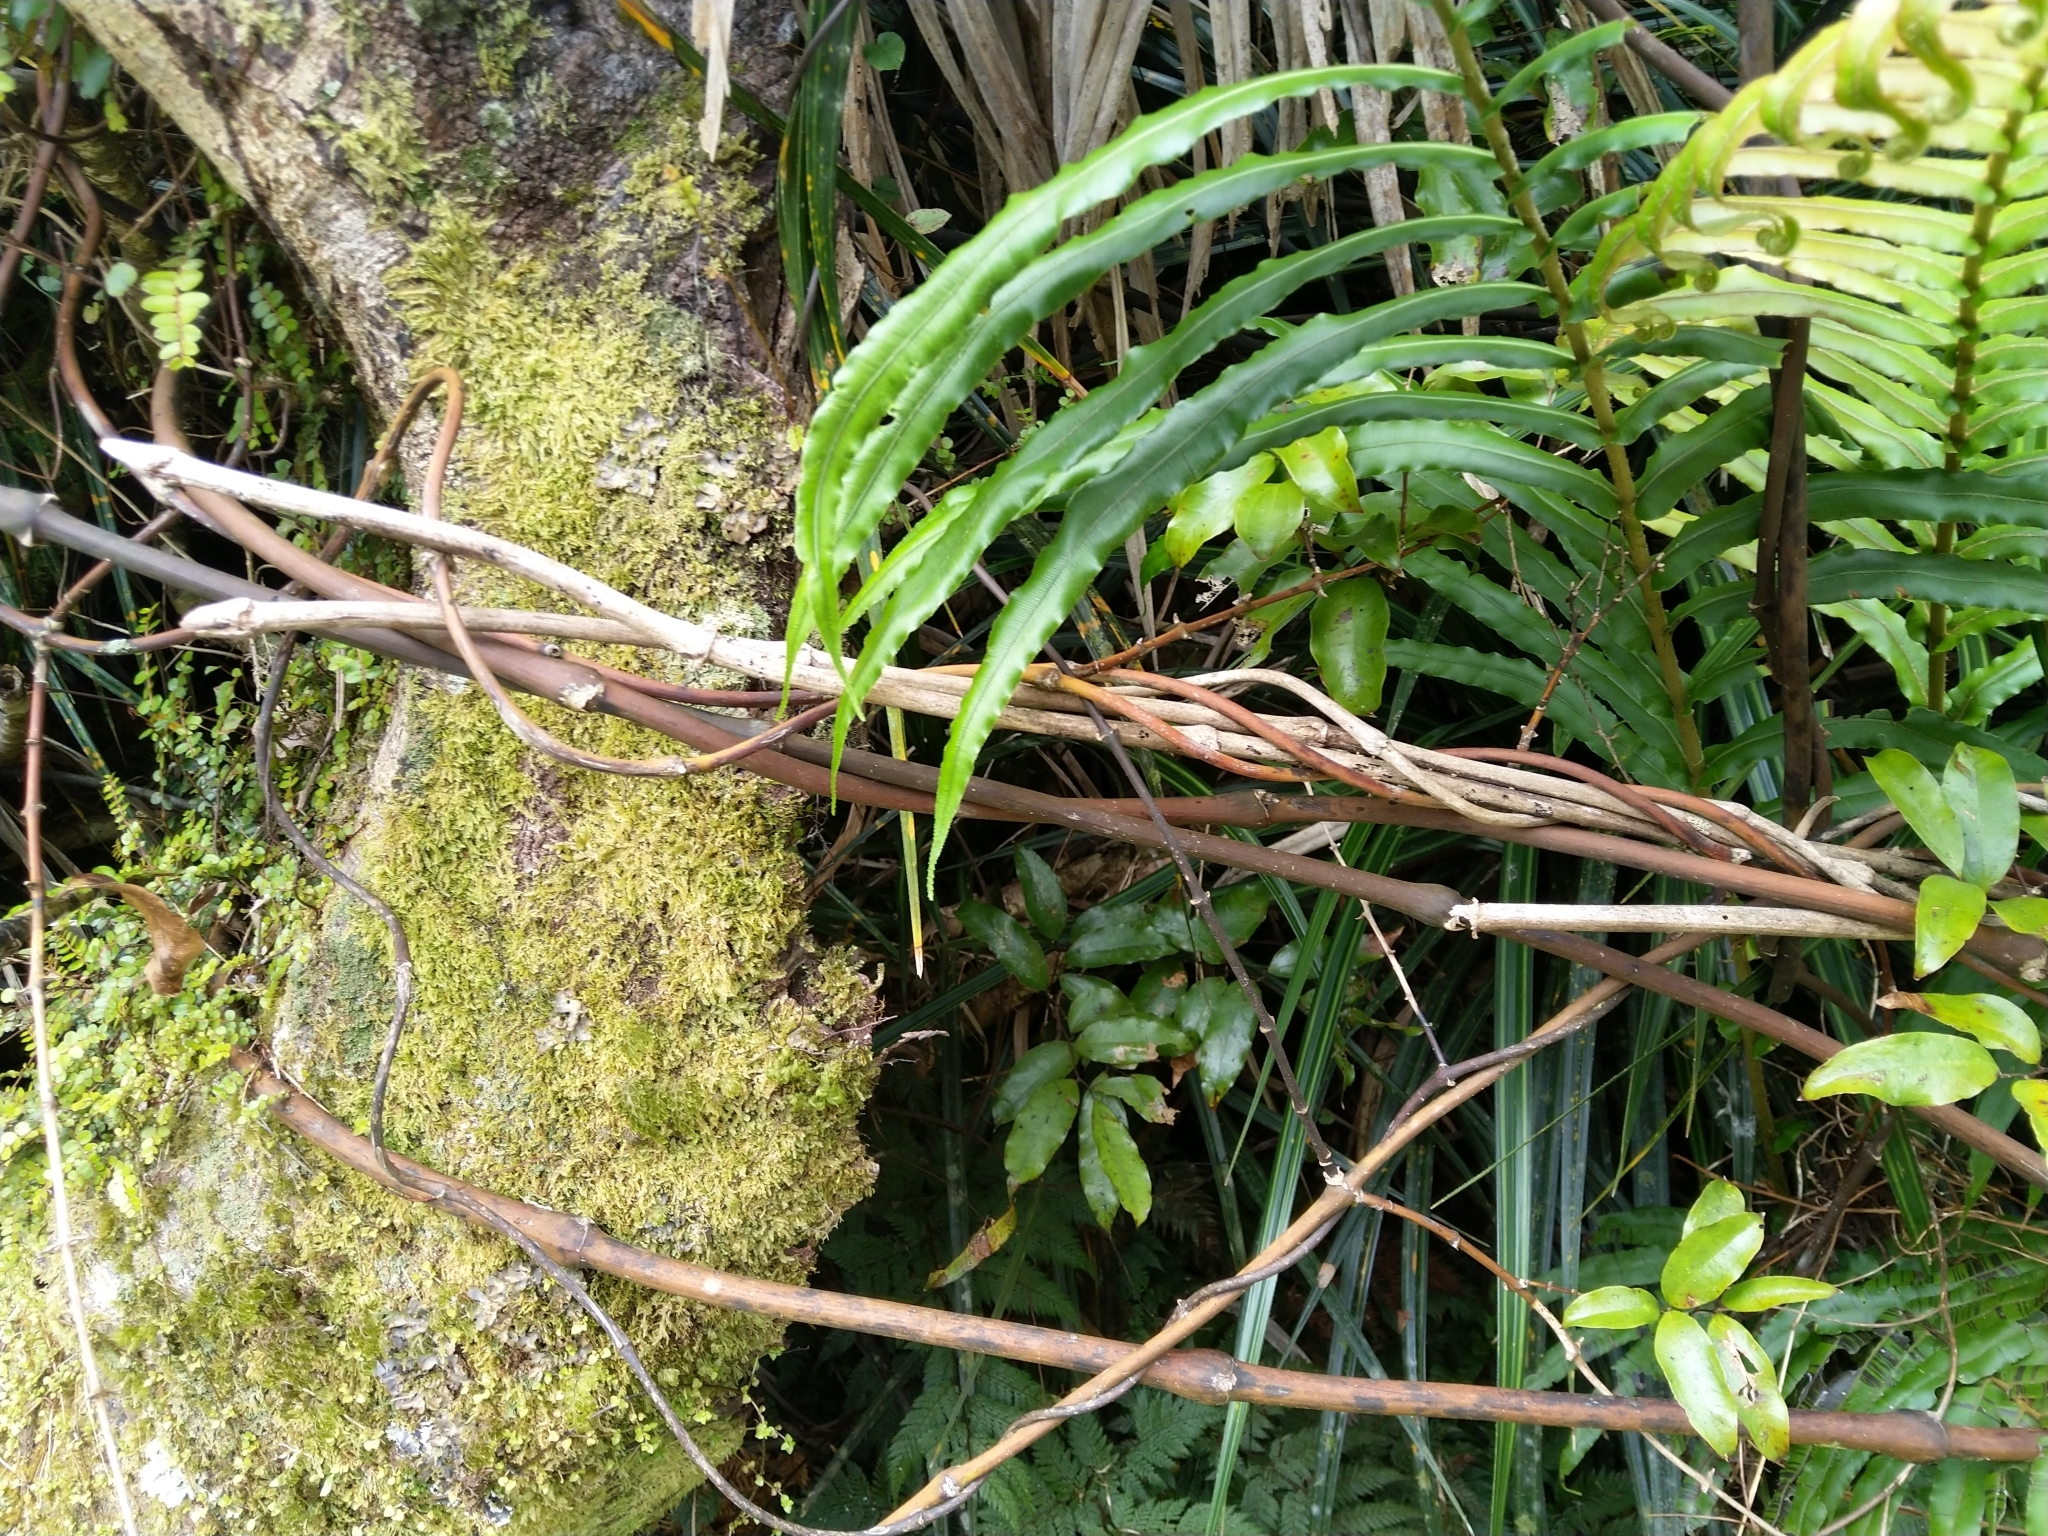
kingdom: Plantae
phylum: Tracheophyta
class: Liliopsida
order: Liliales
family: Ripogonaceae
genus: Ripogonum
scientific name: Ripogonum scandens
